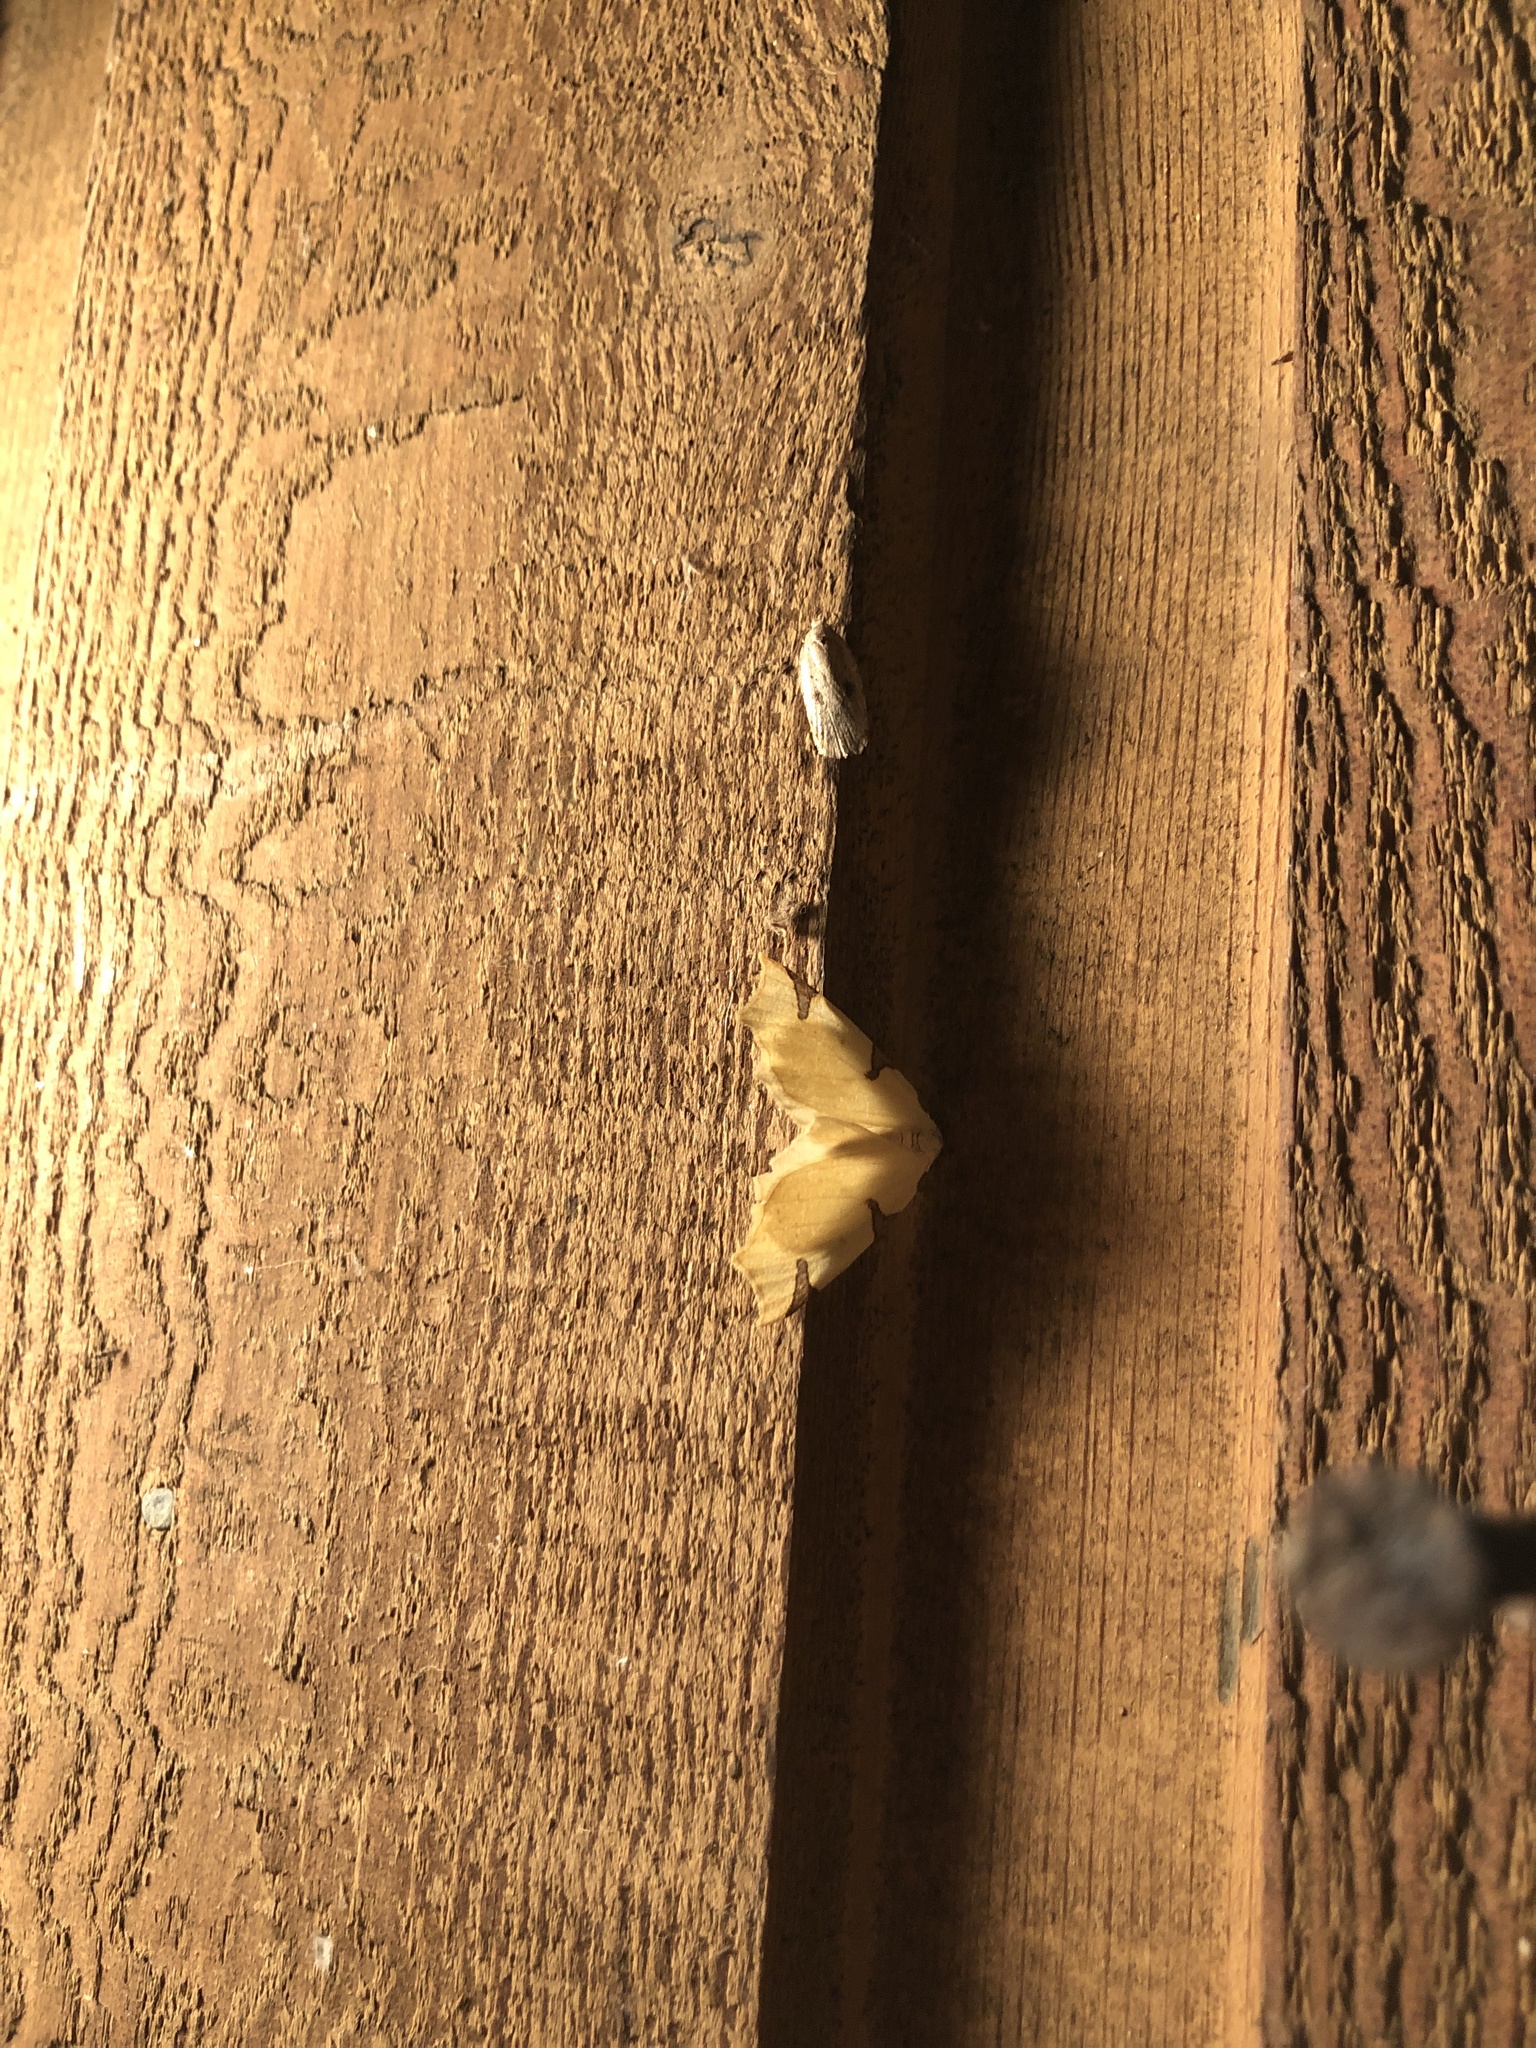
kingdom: Animalia
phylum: Arthropoda
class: Insecta
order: Lepidoptera
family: Geometridae
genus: Neoterpes
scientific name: Neoterpes trianguliferata
